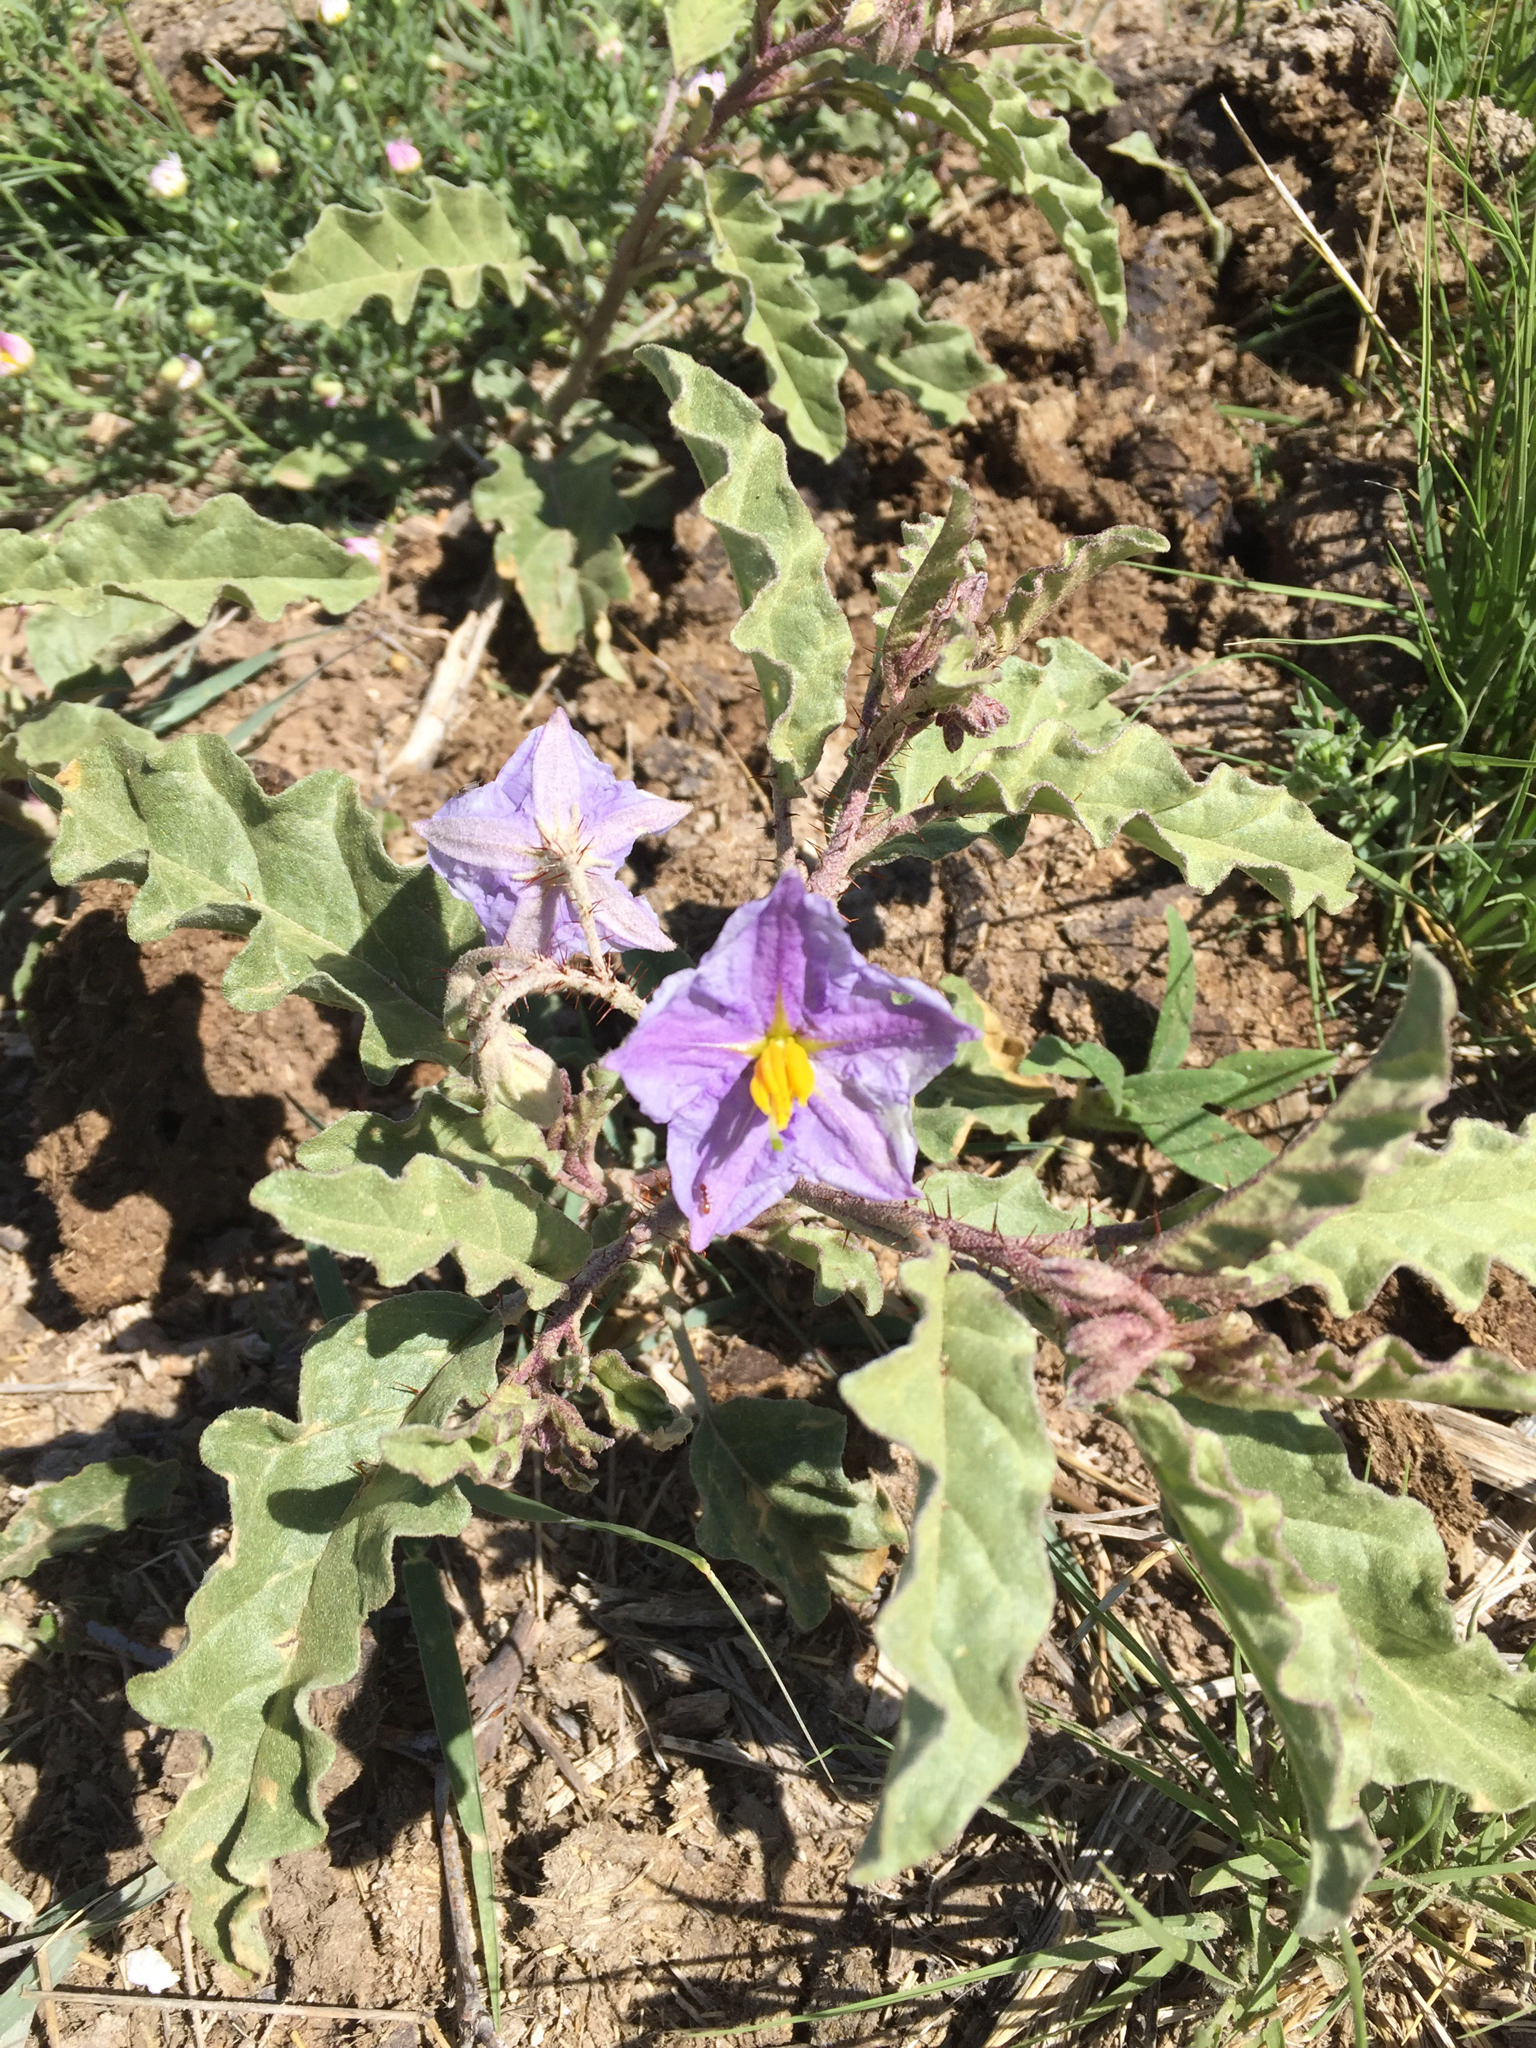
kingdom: Plantae
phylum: Tracheophyta
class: Magnoliopsida
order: Solanales
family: Solanaceae
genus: Solanum
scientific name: Solanum elaeagnifolium
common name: Silverleaf nightshade
